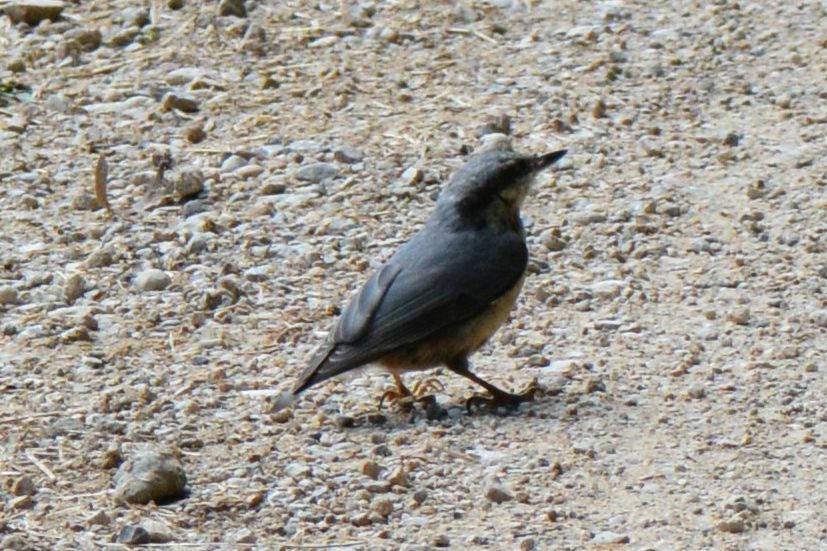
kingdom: Animalia
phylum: Chordata
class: Aves
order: Passeriformes
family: Sittidae
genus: Sitta
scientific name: Sitta europaea
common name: Eurasian nuthatch
